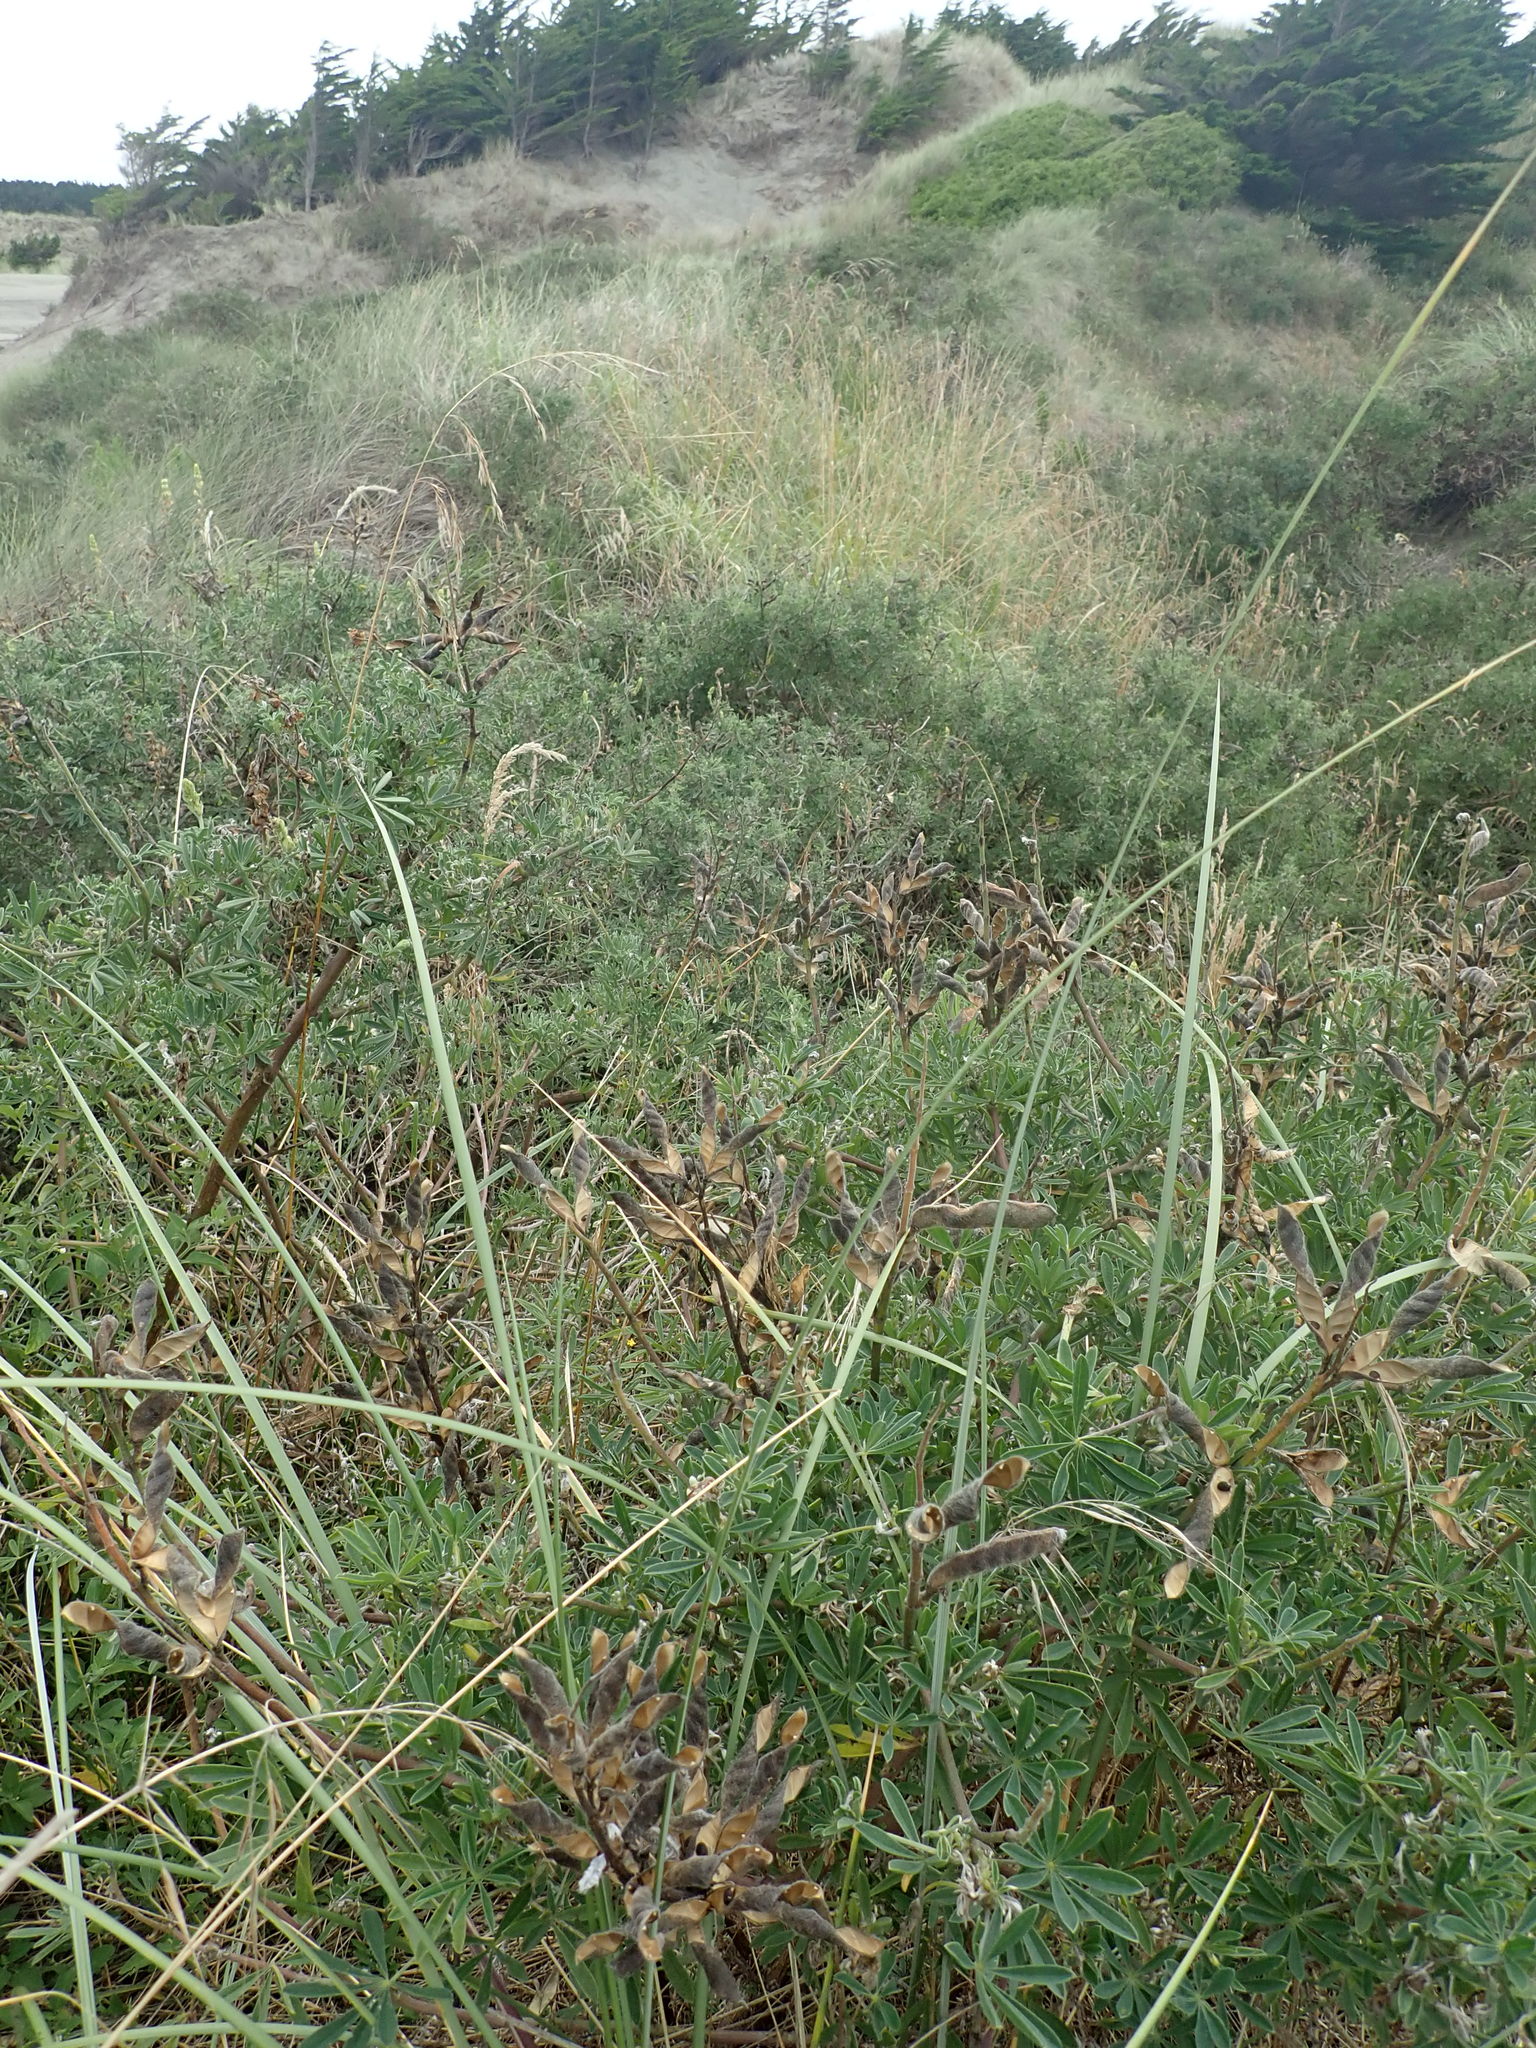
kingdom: Plantae
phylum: Tracheophyta
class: Magnoliopsida
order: Fabales
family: Fabaceae
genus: Lupinus
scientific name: Lupinus arboreus
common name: Yellow bush lupine
